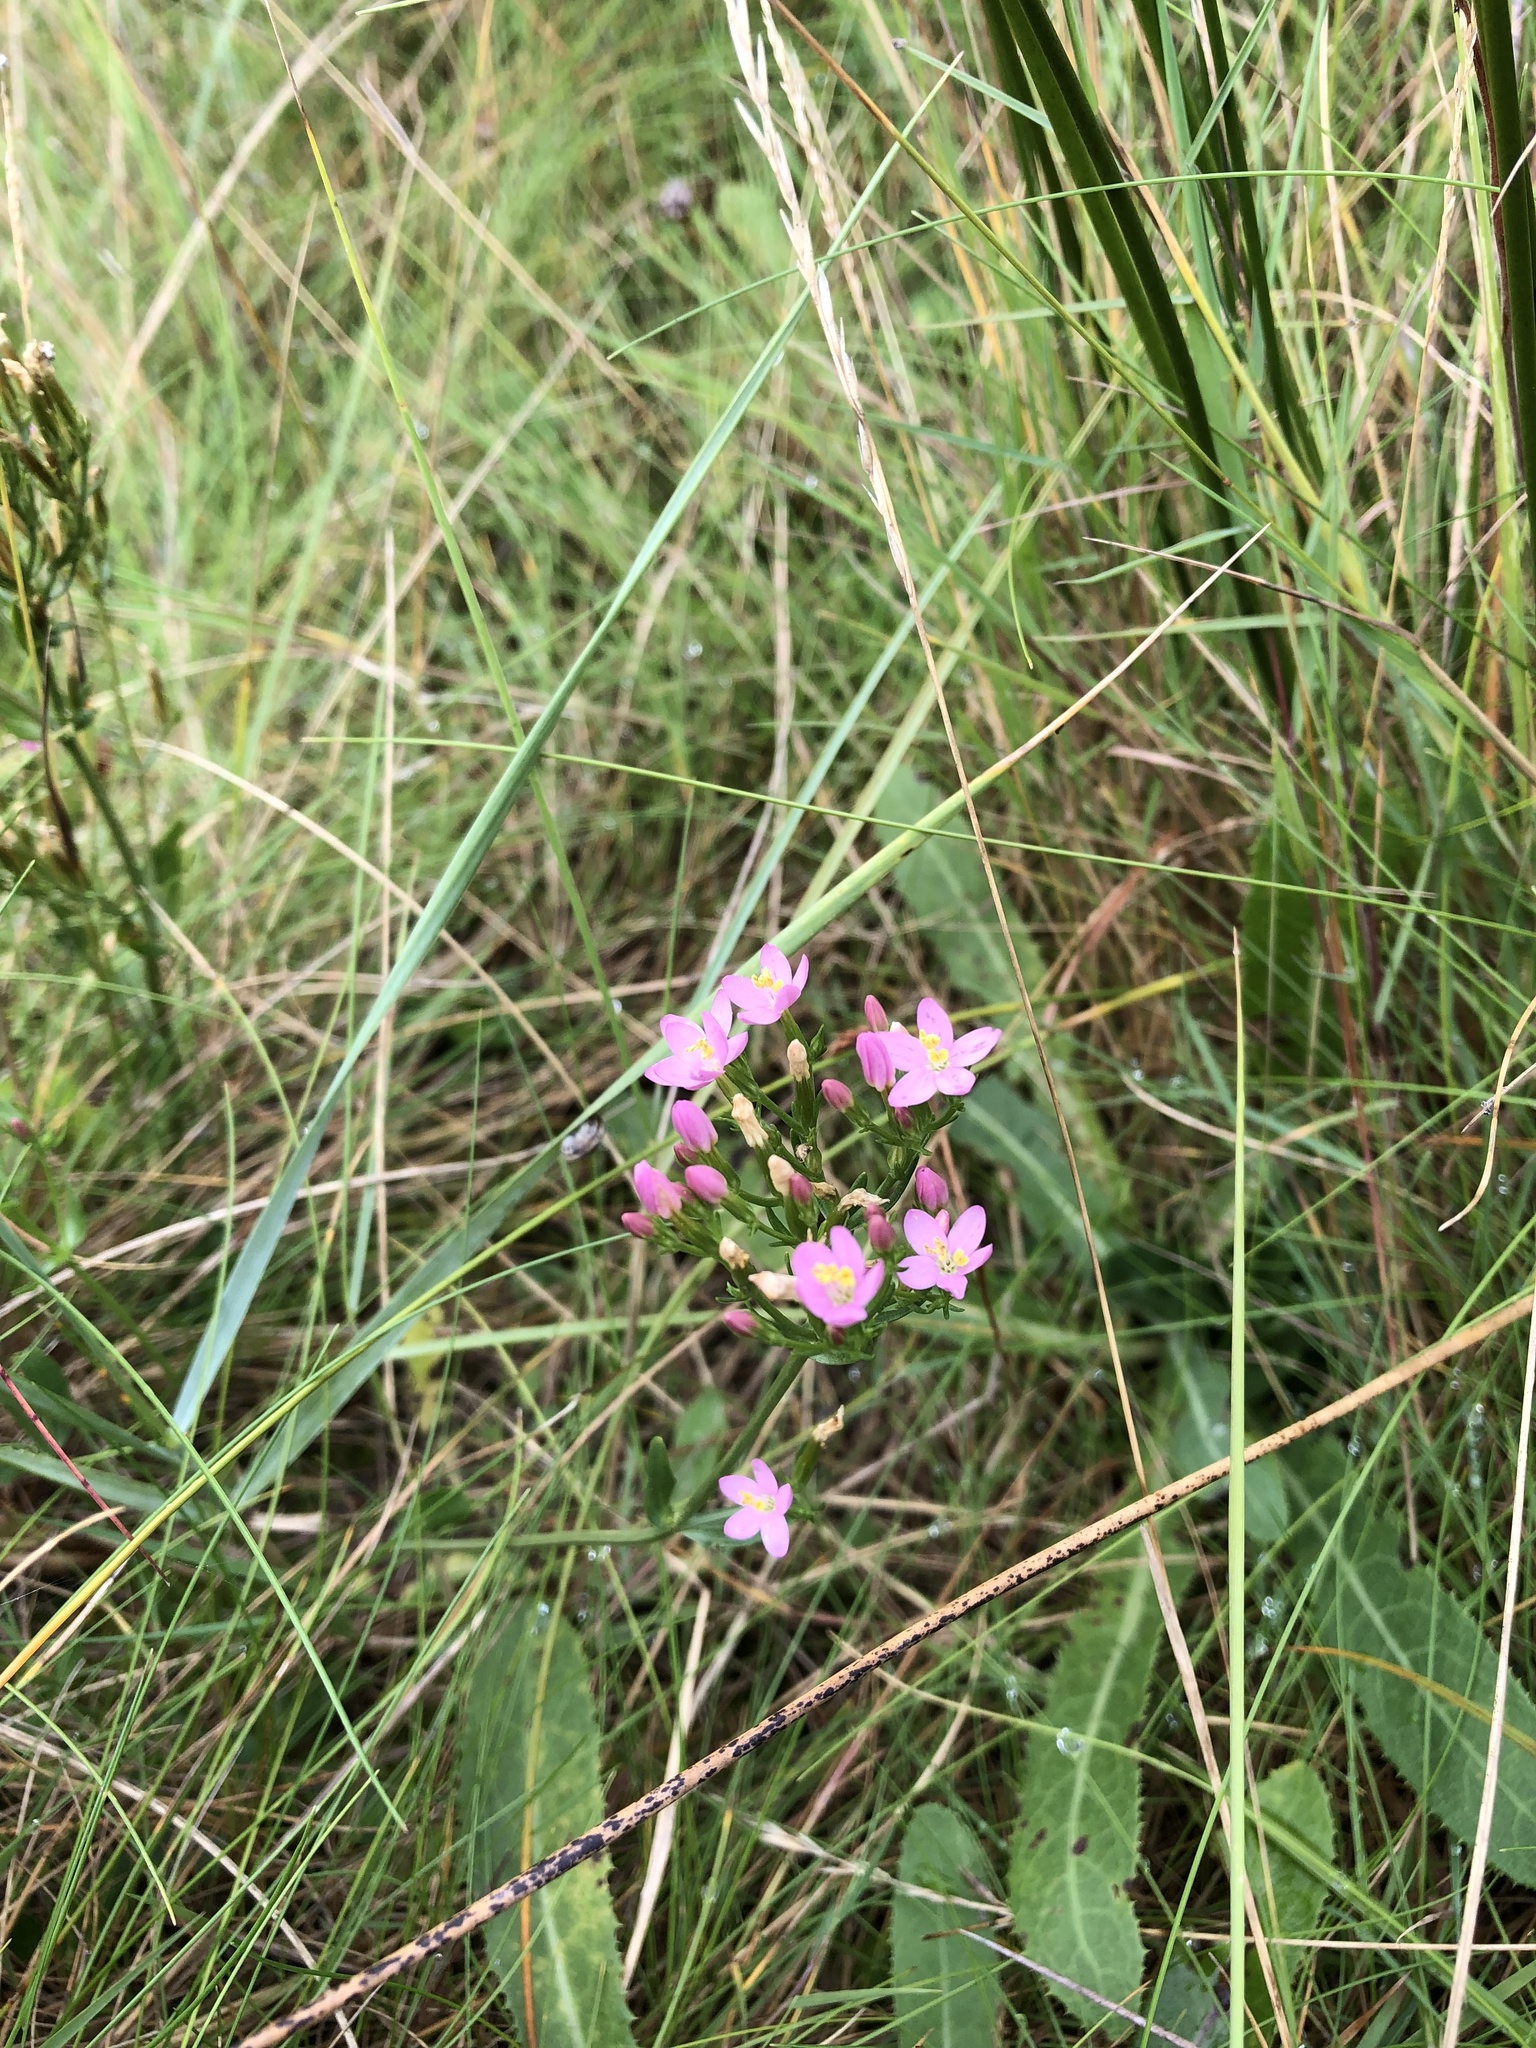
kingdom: Plantae
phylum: Tracheophyta
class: Magnoliopsida
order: Gentianales
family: Gentianaceae
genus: Centaurium
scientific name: Centaurium erythraea
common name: Common centaury
